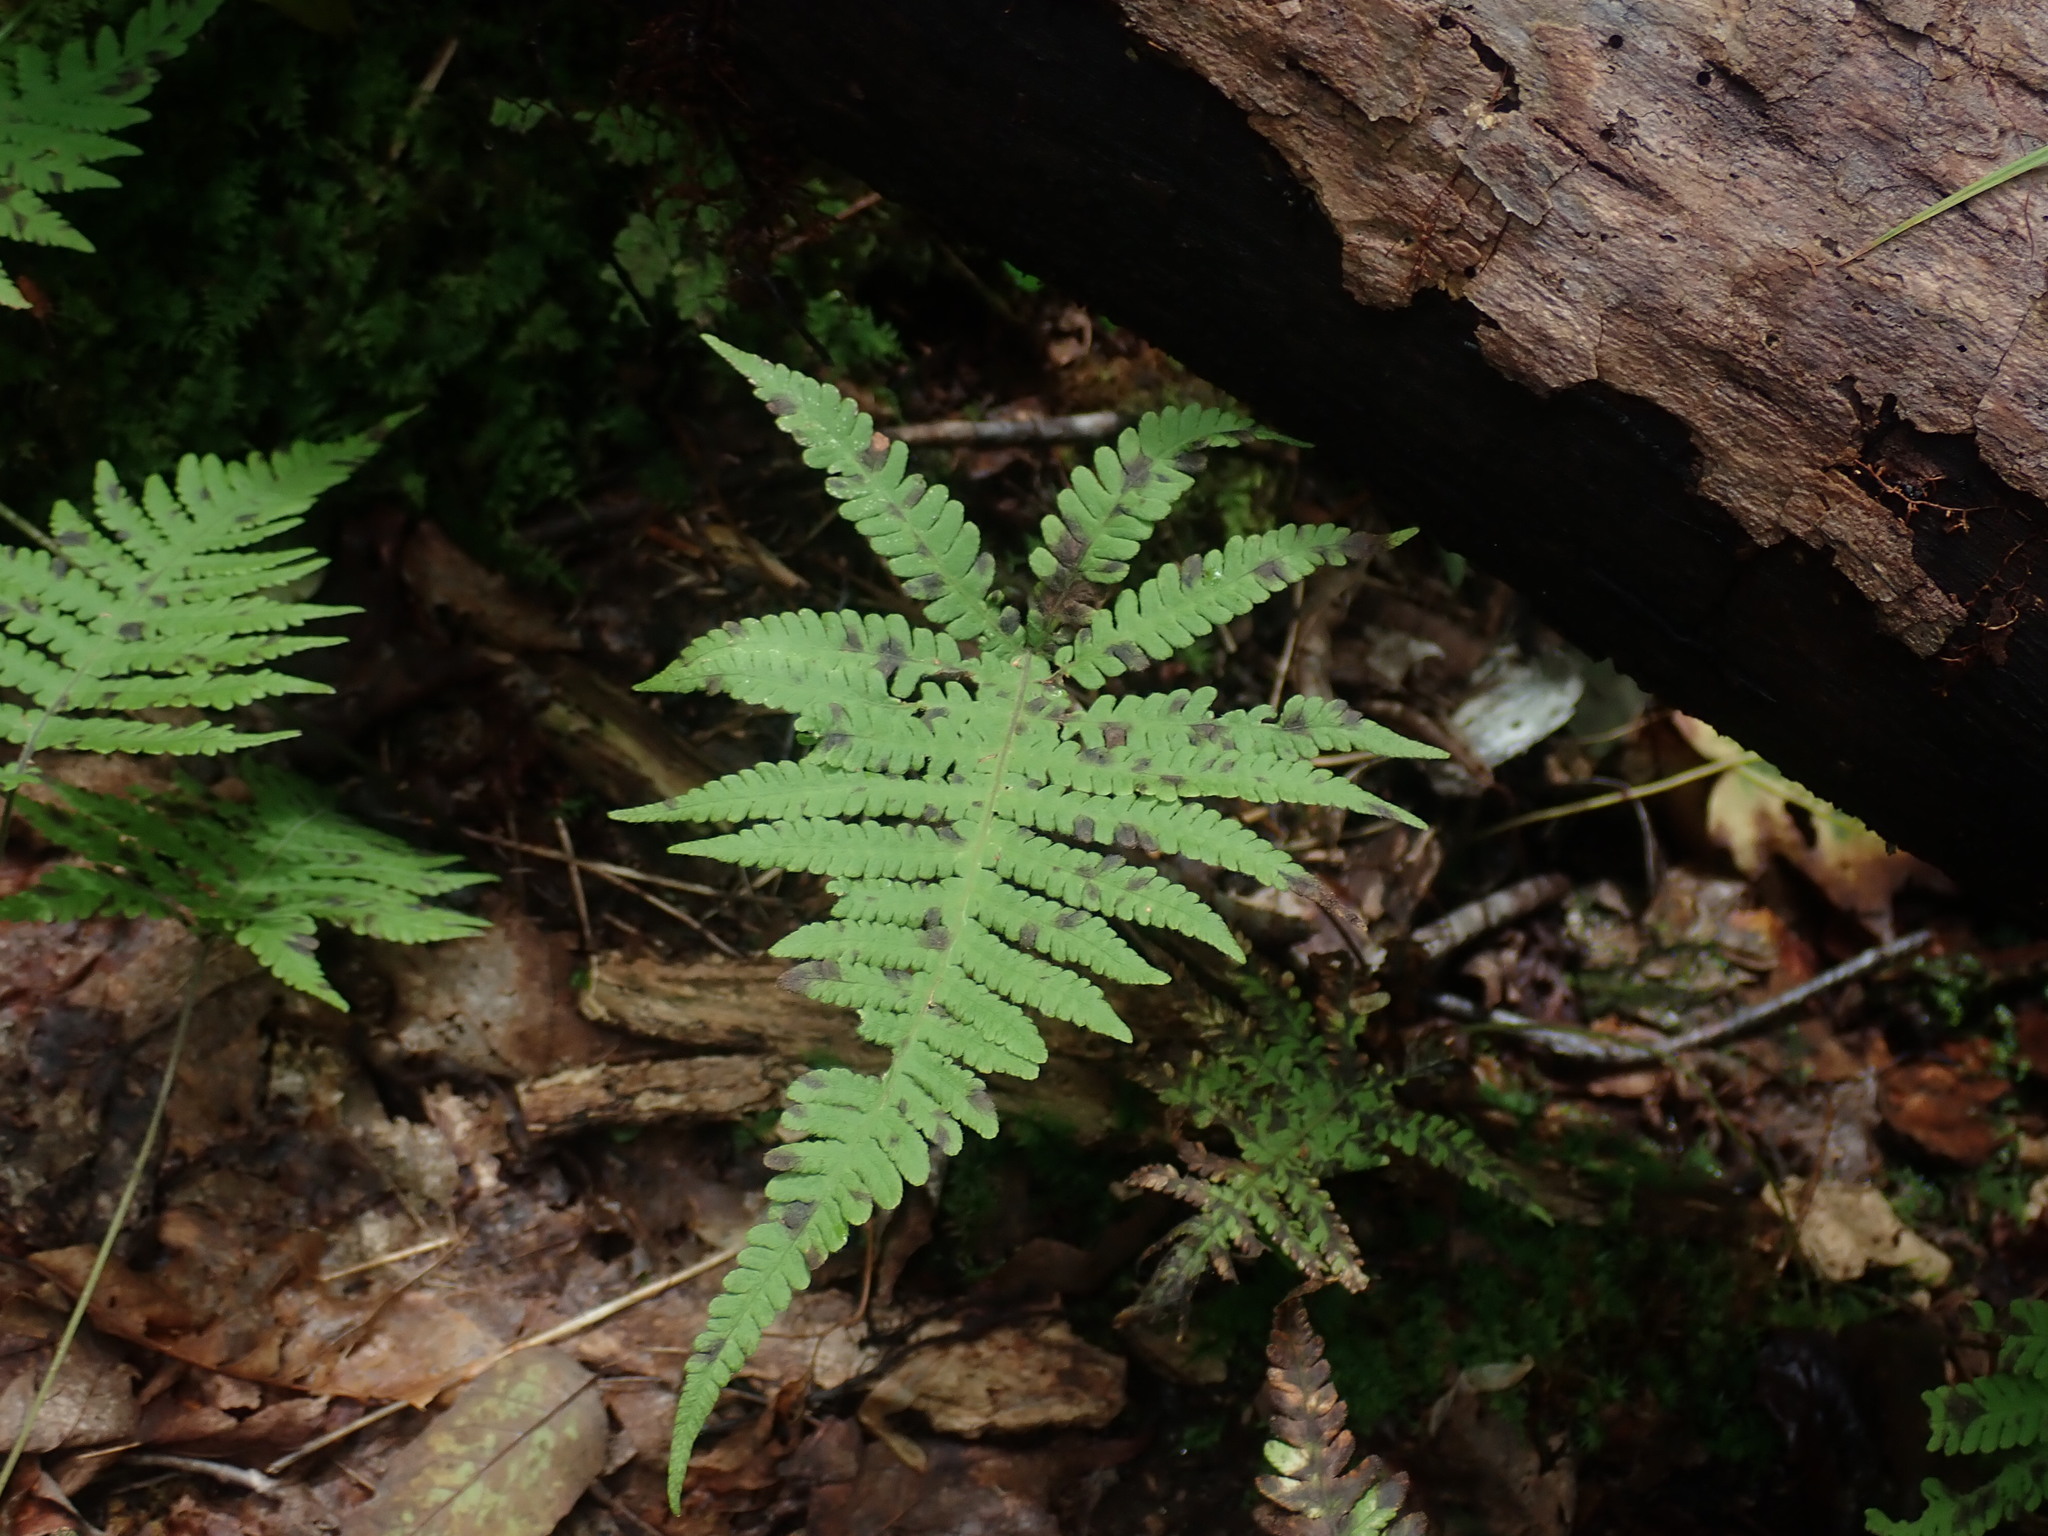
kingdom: Plantae
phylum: Tracheophyta
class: Polypodiopsida
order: Polypodiales
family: Thelypteridaceae
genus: Phegopteris
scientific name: Phegopteris connectilis
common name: Beech fern
